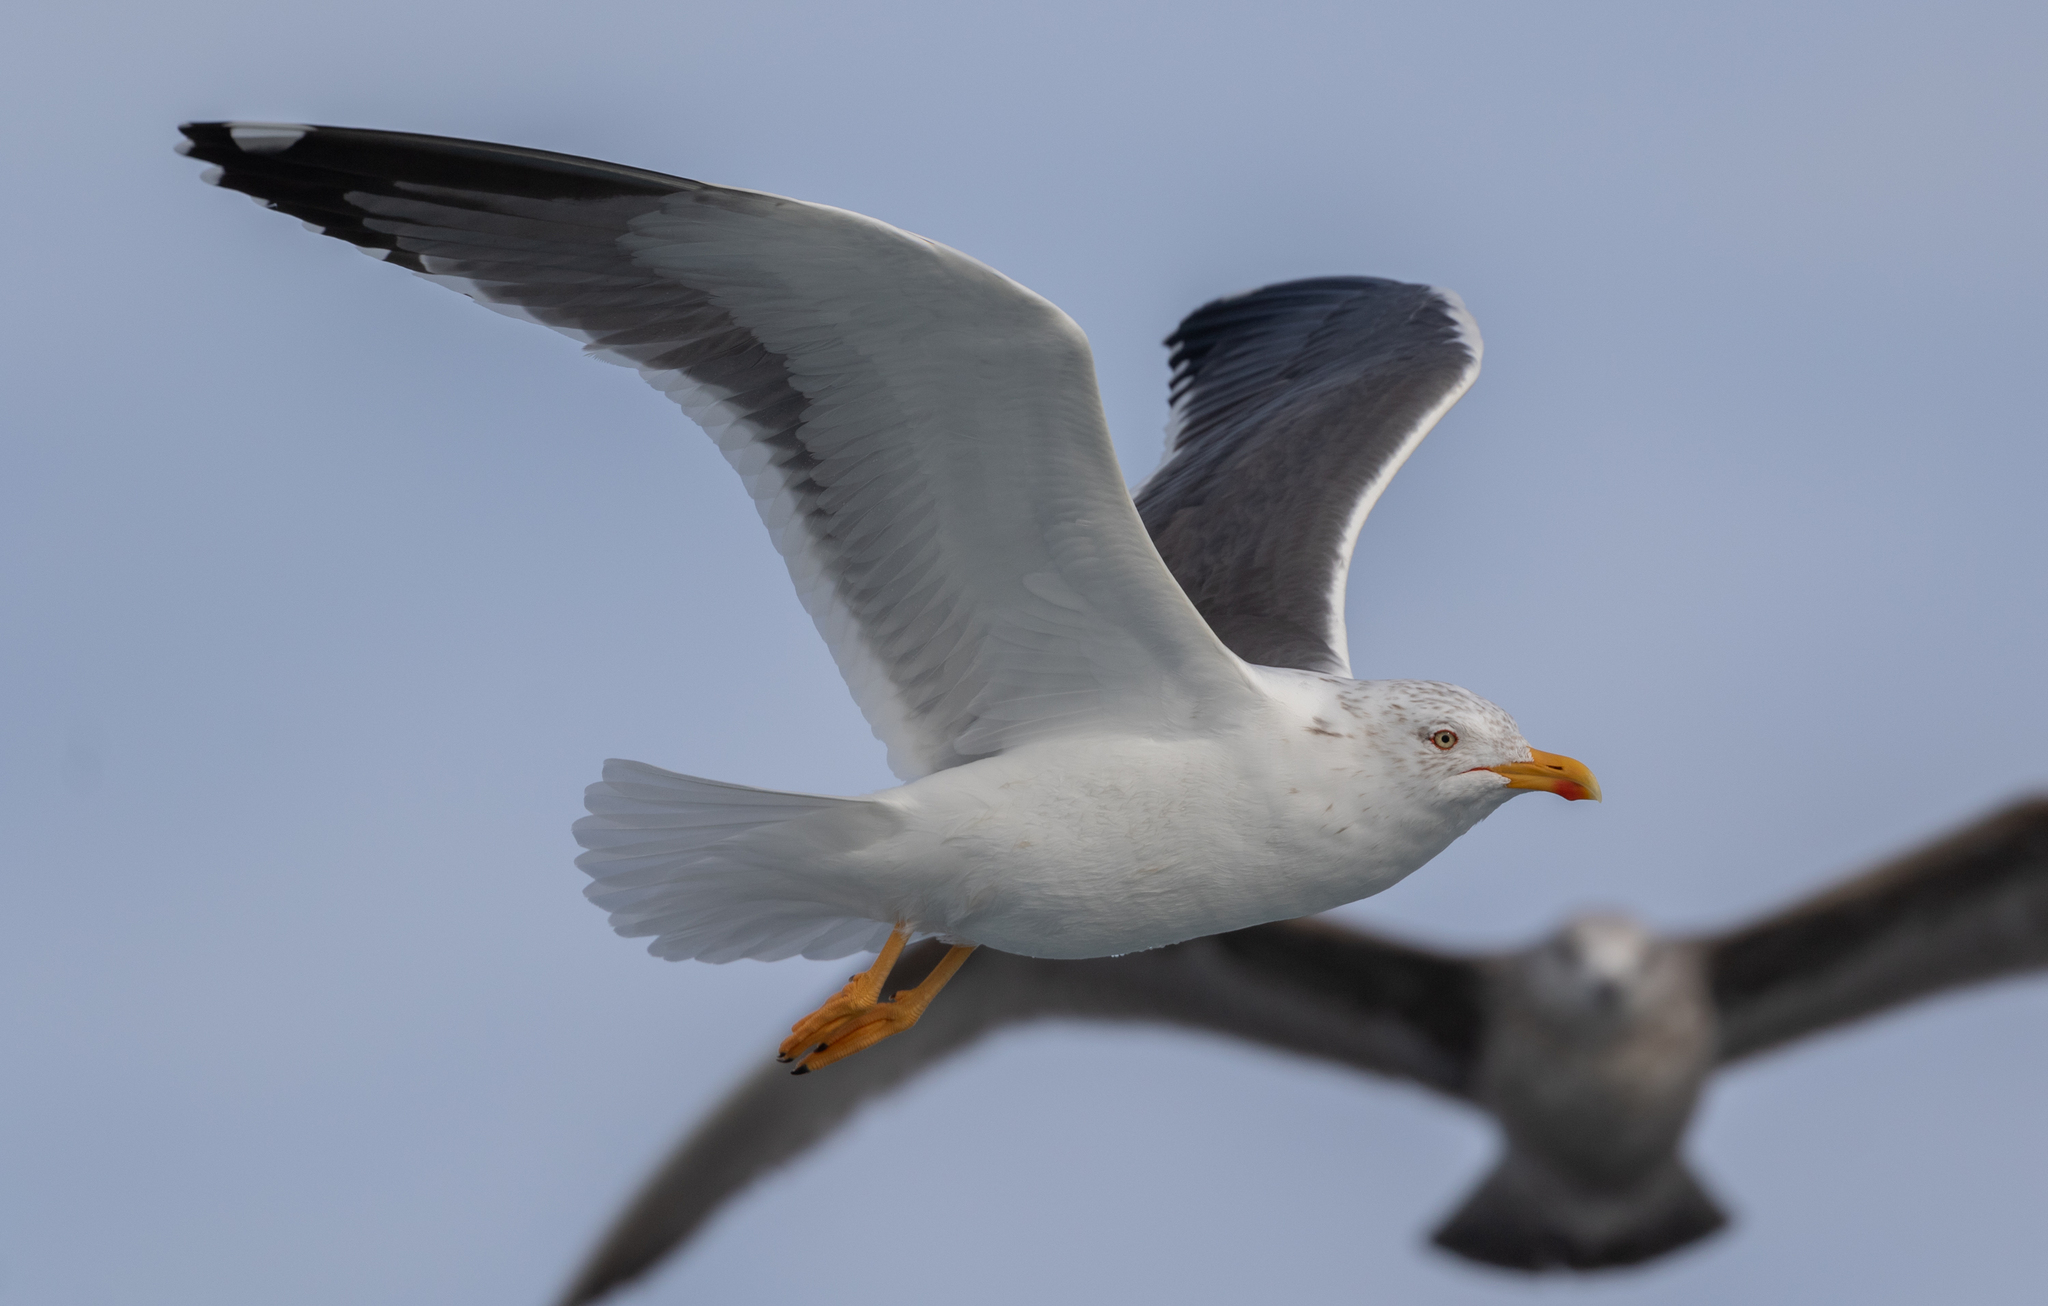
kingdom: Animalia
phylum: Chordata
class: Aves
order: Charadriiformes
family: Laridae
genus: Larus
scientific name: Larus fuscus
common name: Lesser black-backed gull
